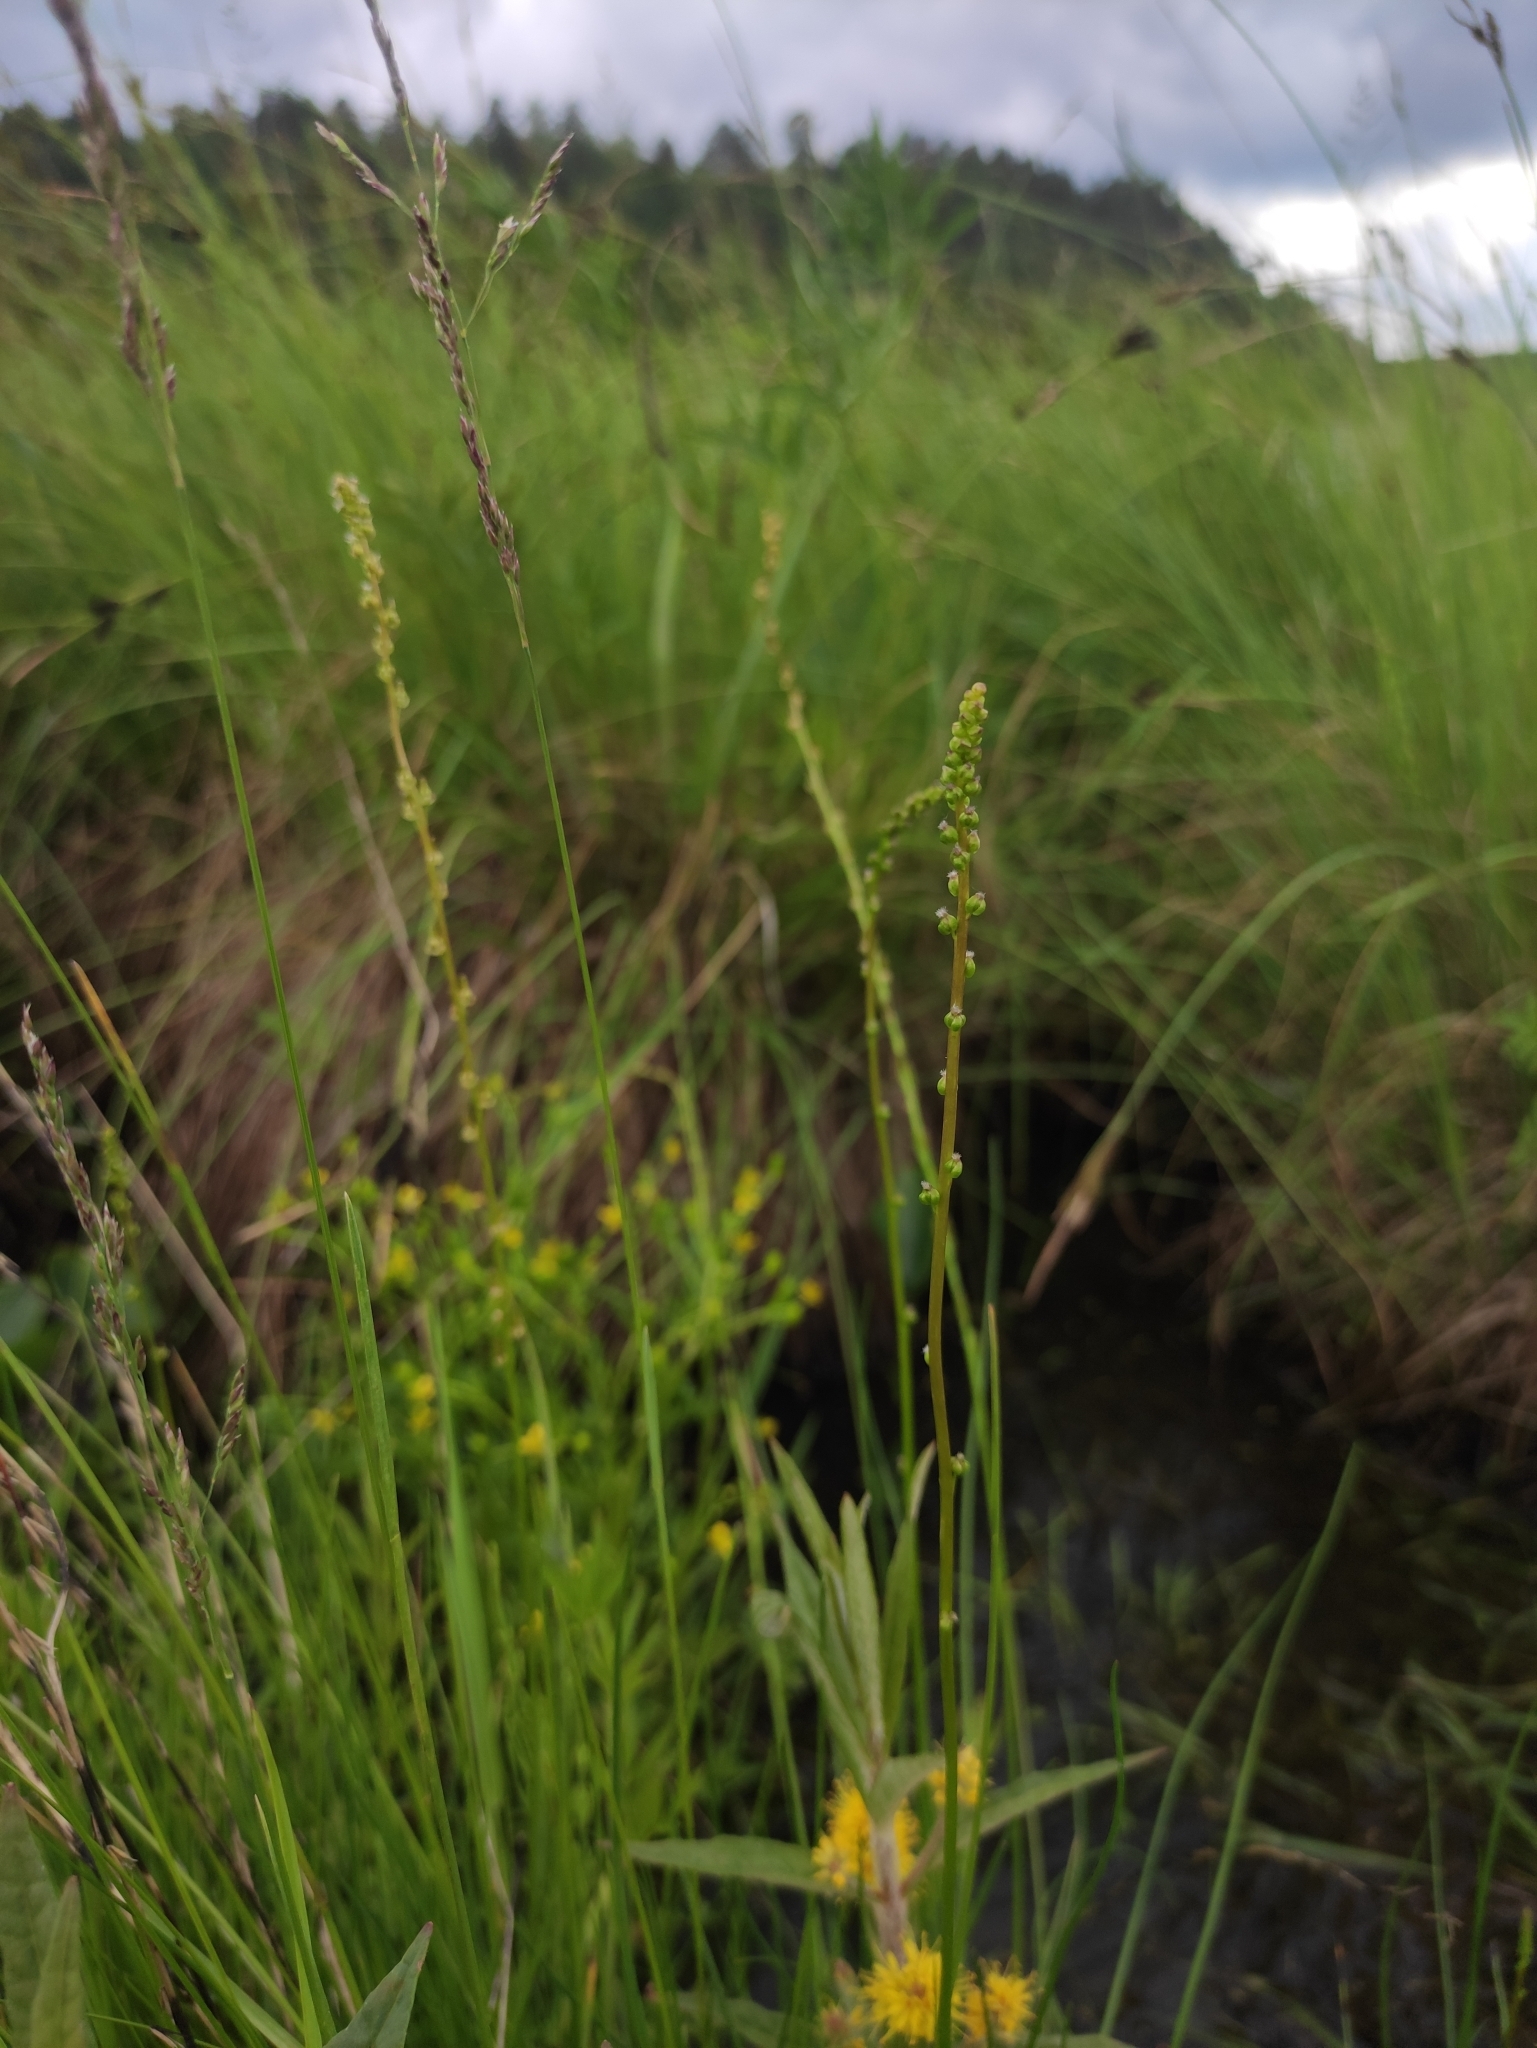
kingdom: Plantae
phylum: Tracheophyta
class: Liliopsida
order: Alismatales
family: Juncaginaceae
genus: Triglochin
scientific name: Triglochin palustris
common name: Marsh arrowgrass
